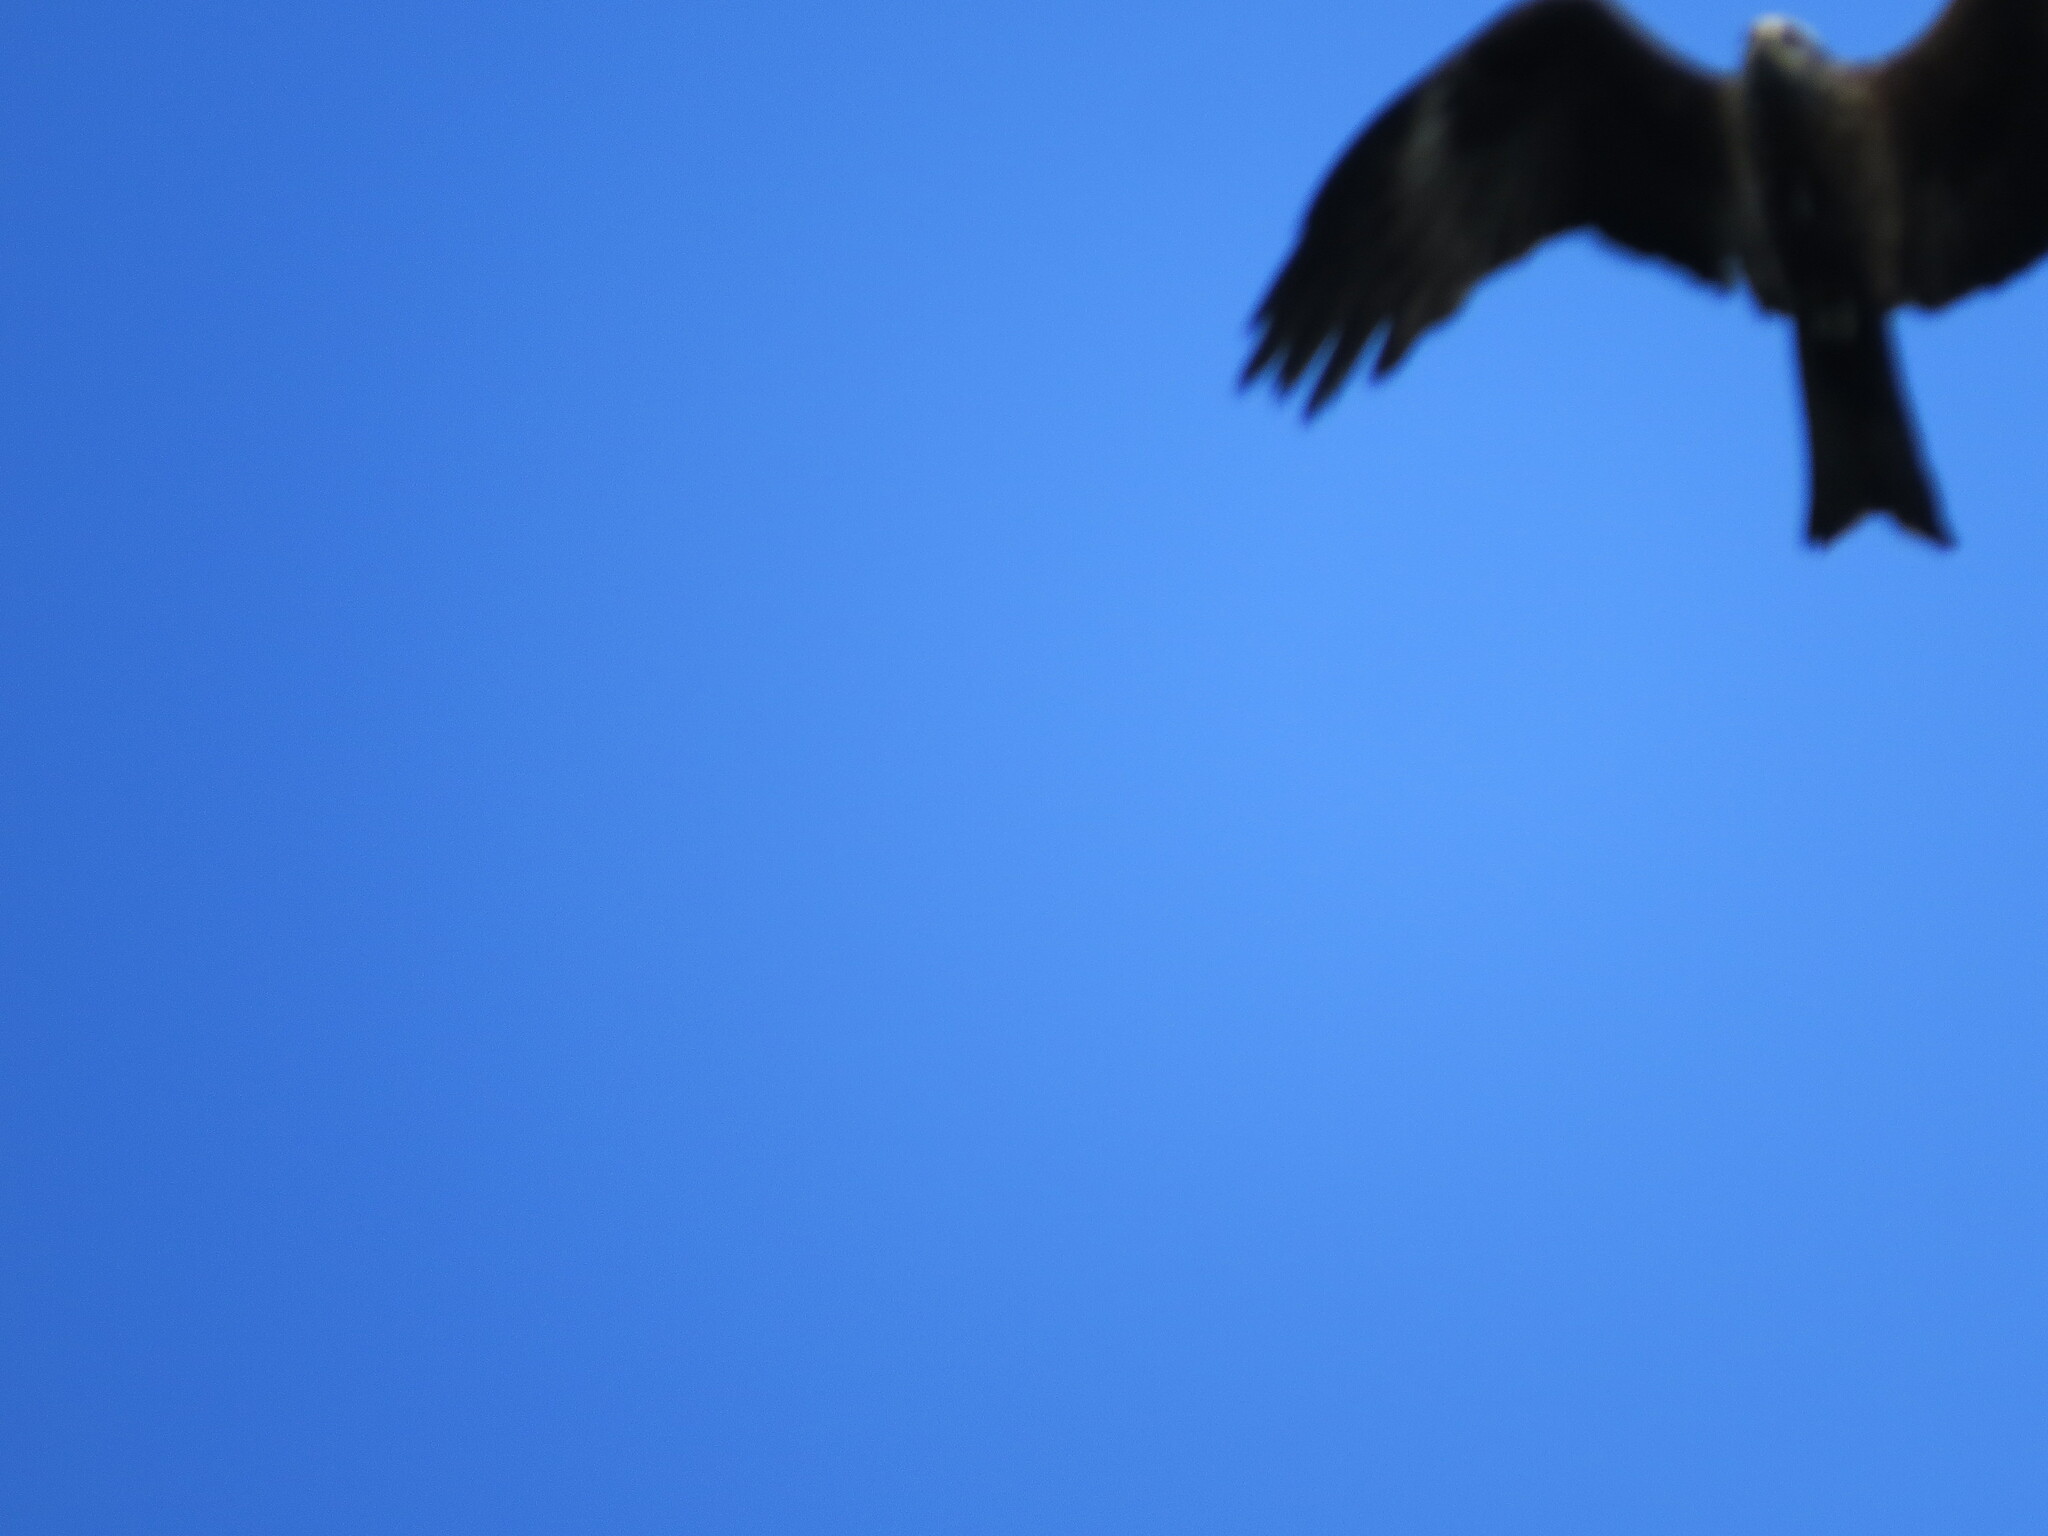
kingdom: Animalia
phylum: Chordata
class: Aves
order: Accipitriformes
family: Accipitridae
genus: Milvus
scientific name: Milvus migrans
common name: Black kite
